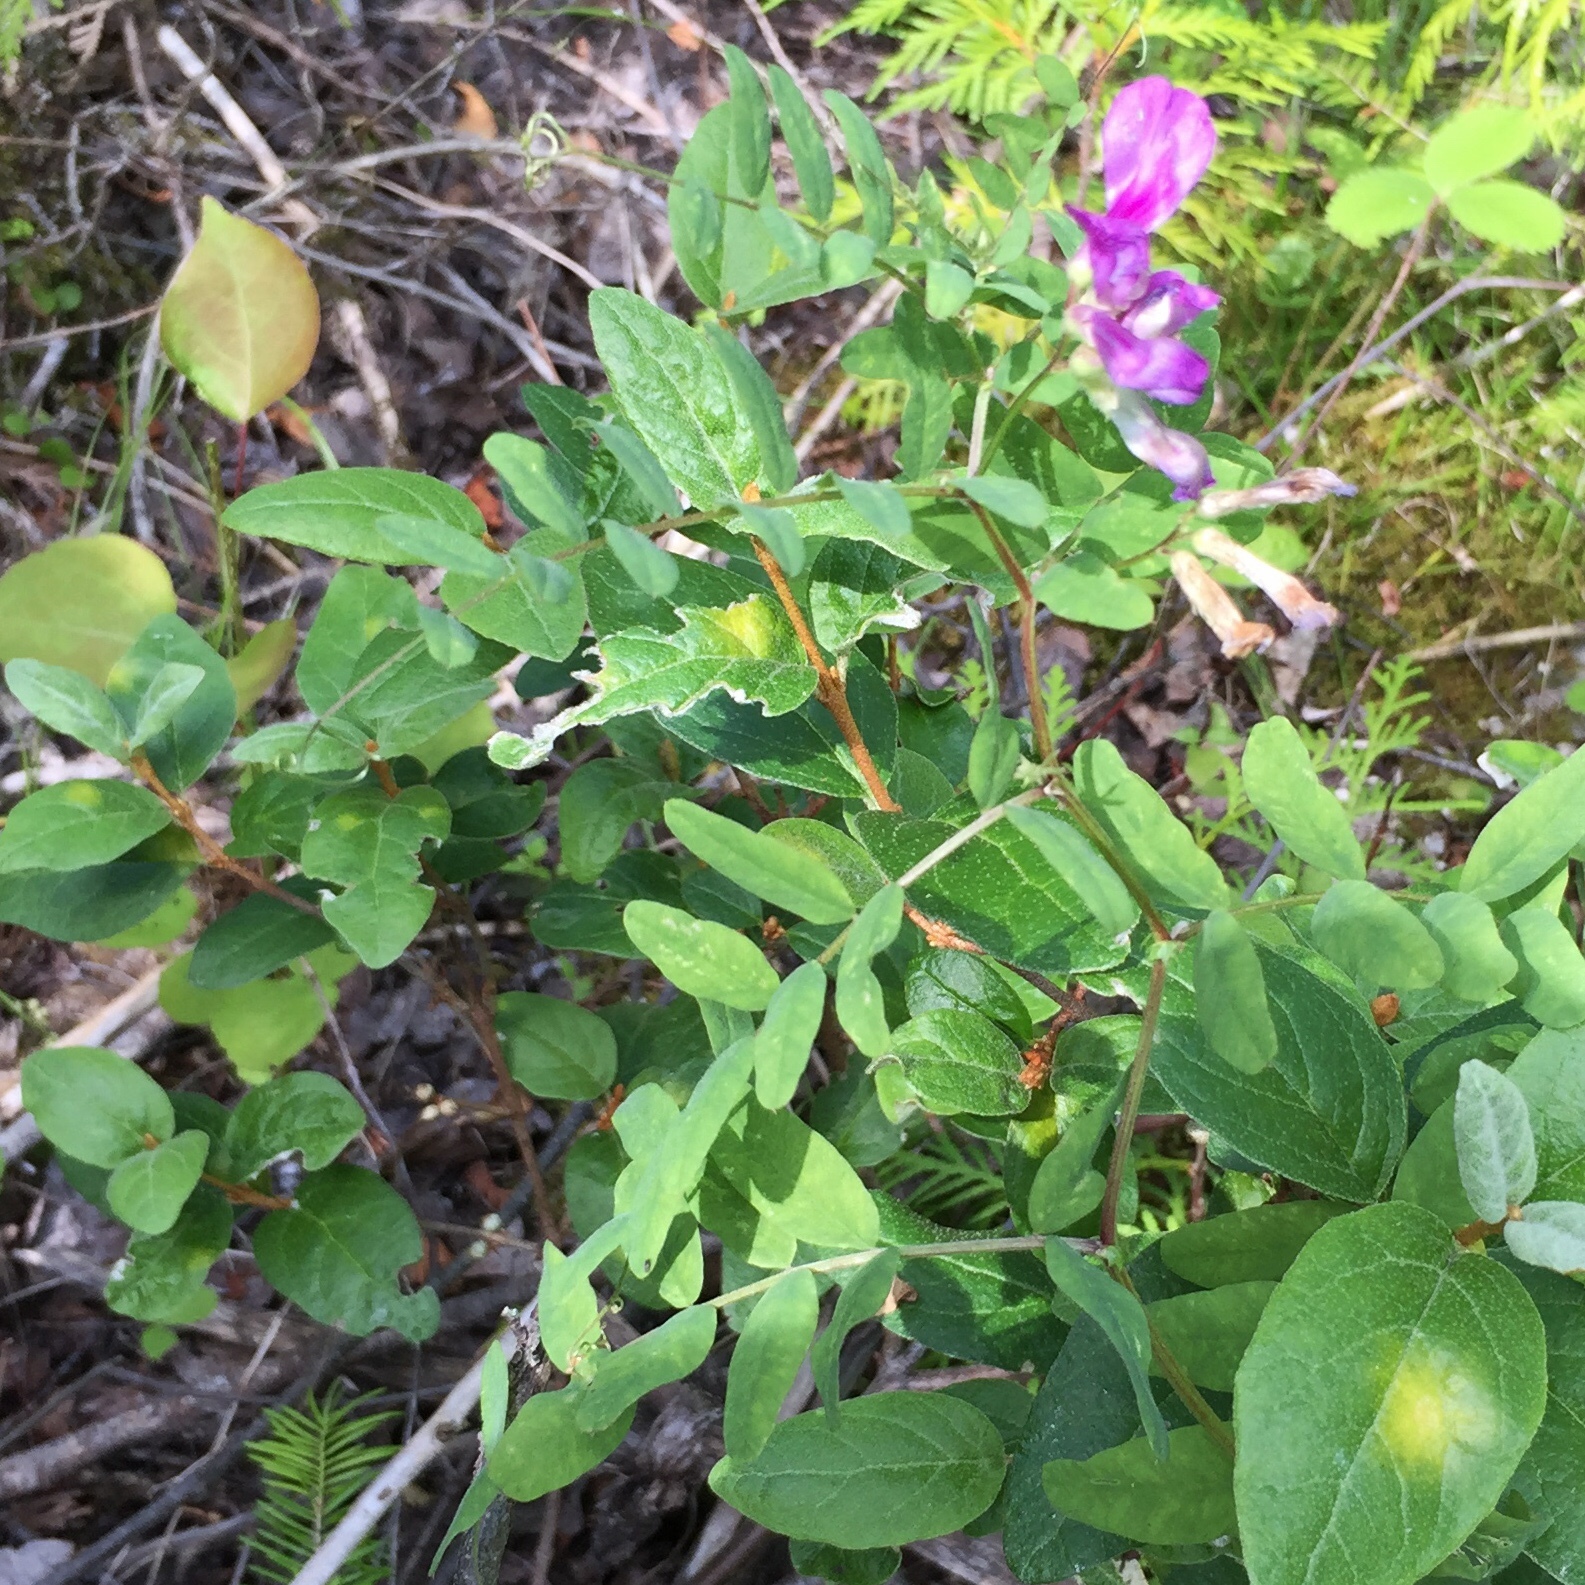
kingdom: Plantae
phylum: Tracheophyta
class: Magnoliopsida
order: Fabales
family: Fabaceae
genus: Vicia
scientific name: Vicia americana
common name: American vetch
